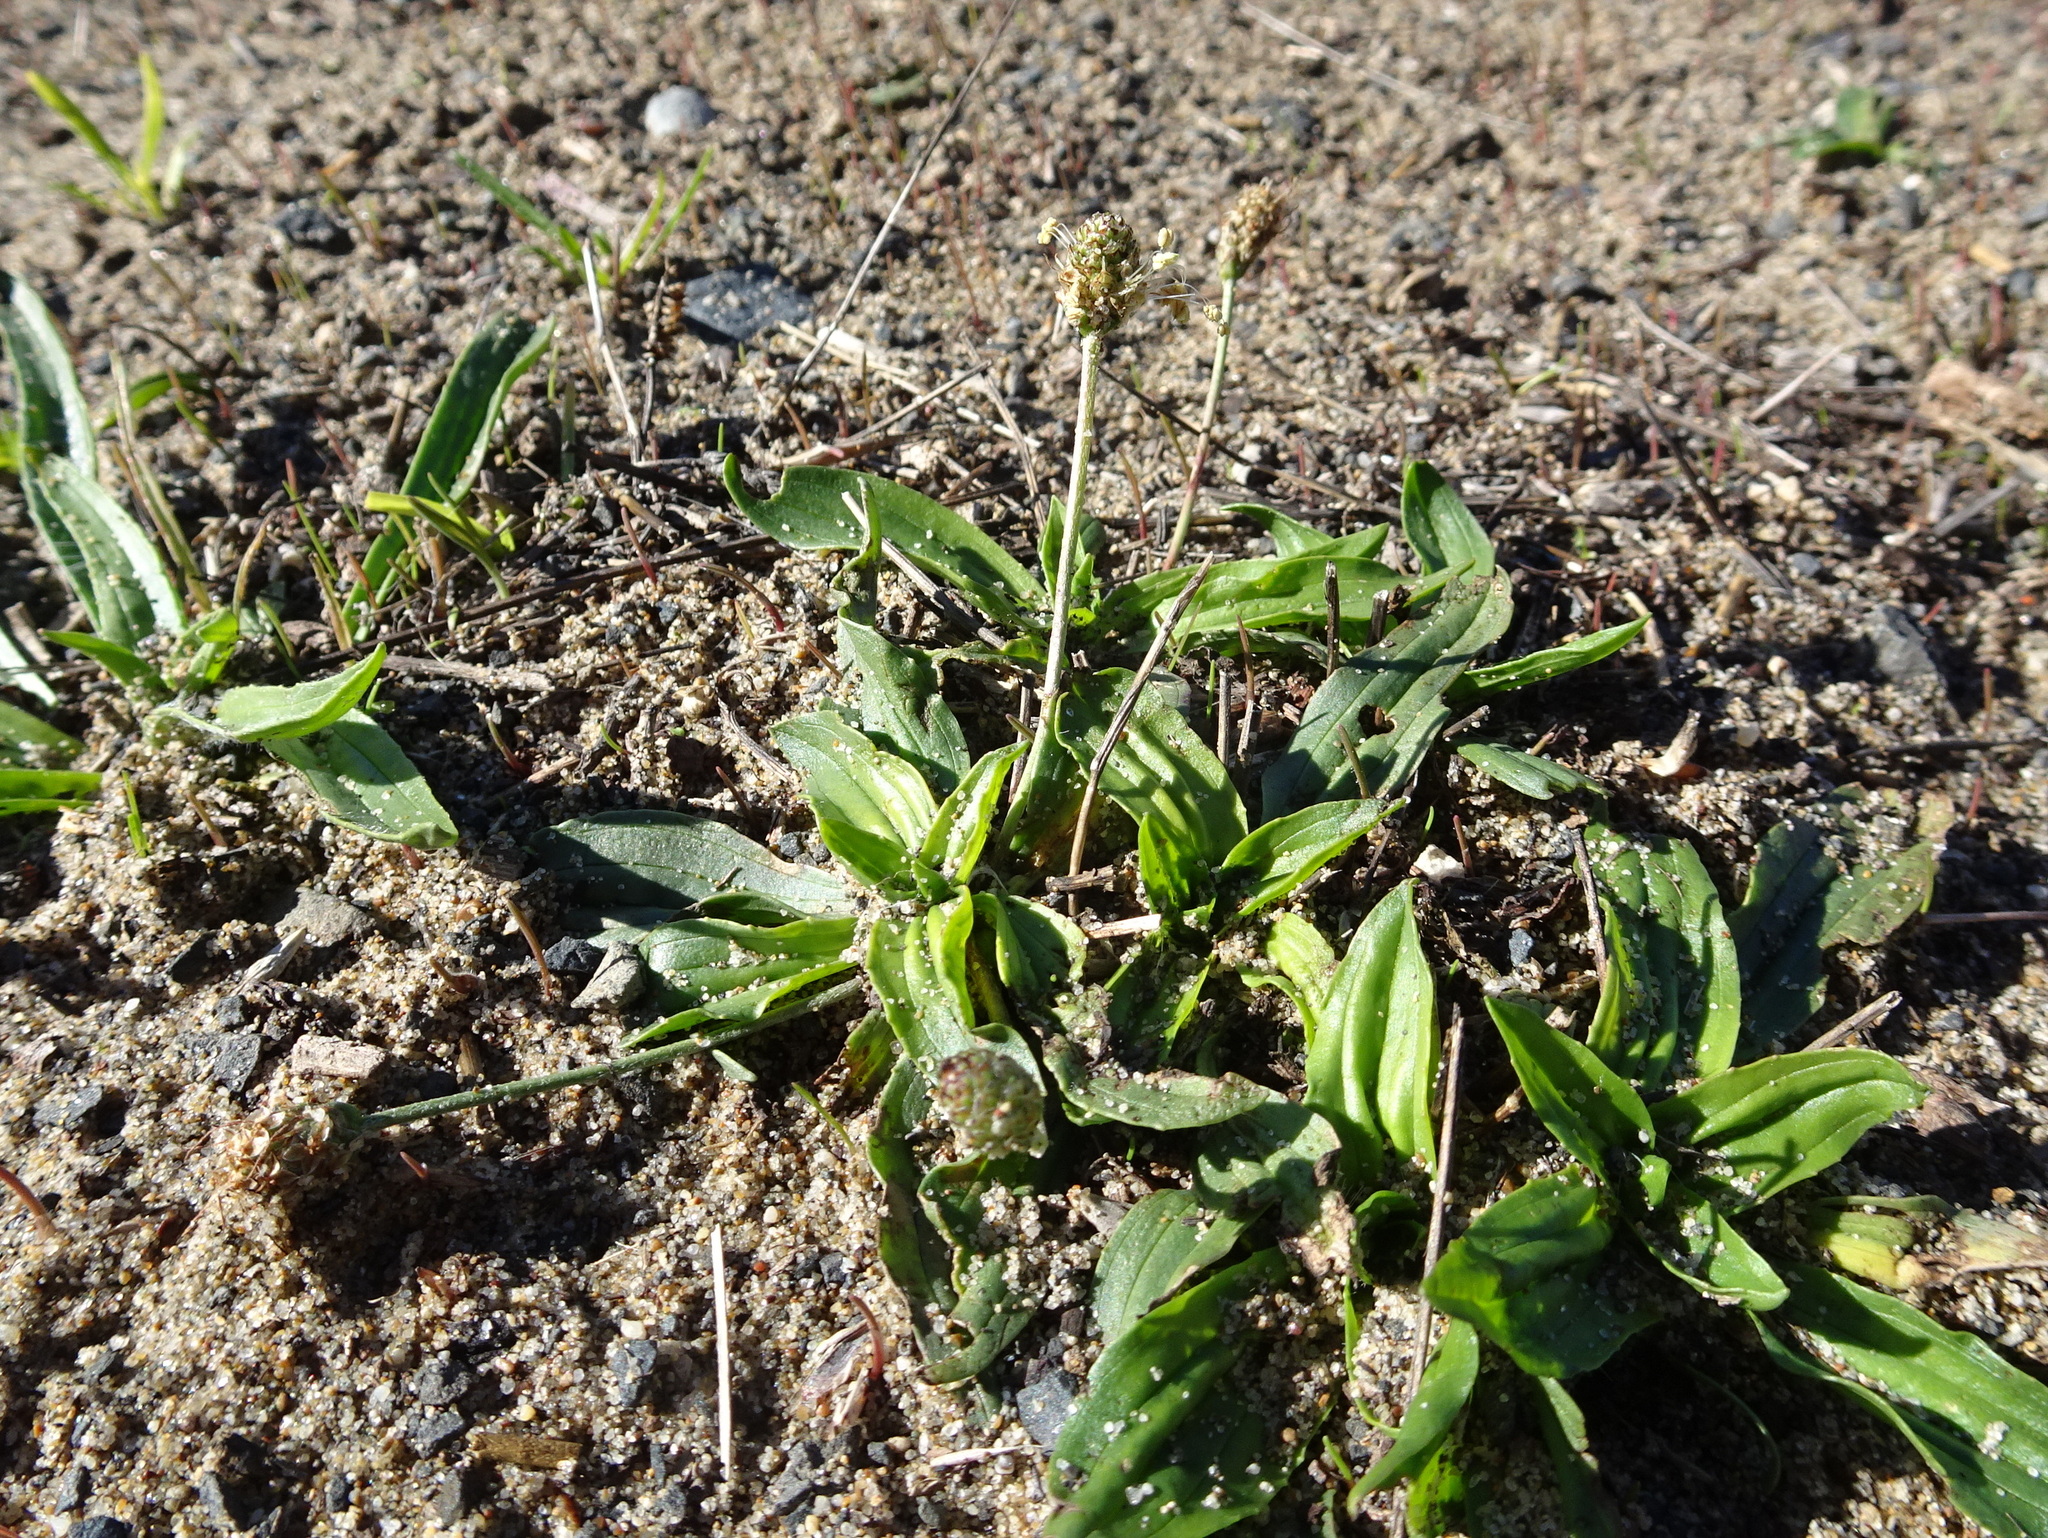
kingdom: Plantae
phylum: Tracheophyta
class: Magnoliopsida
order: Lamiales
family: Plantaginaceae
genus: Plantago
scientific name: Plantago lanceolata
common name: Ribwort plantain
